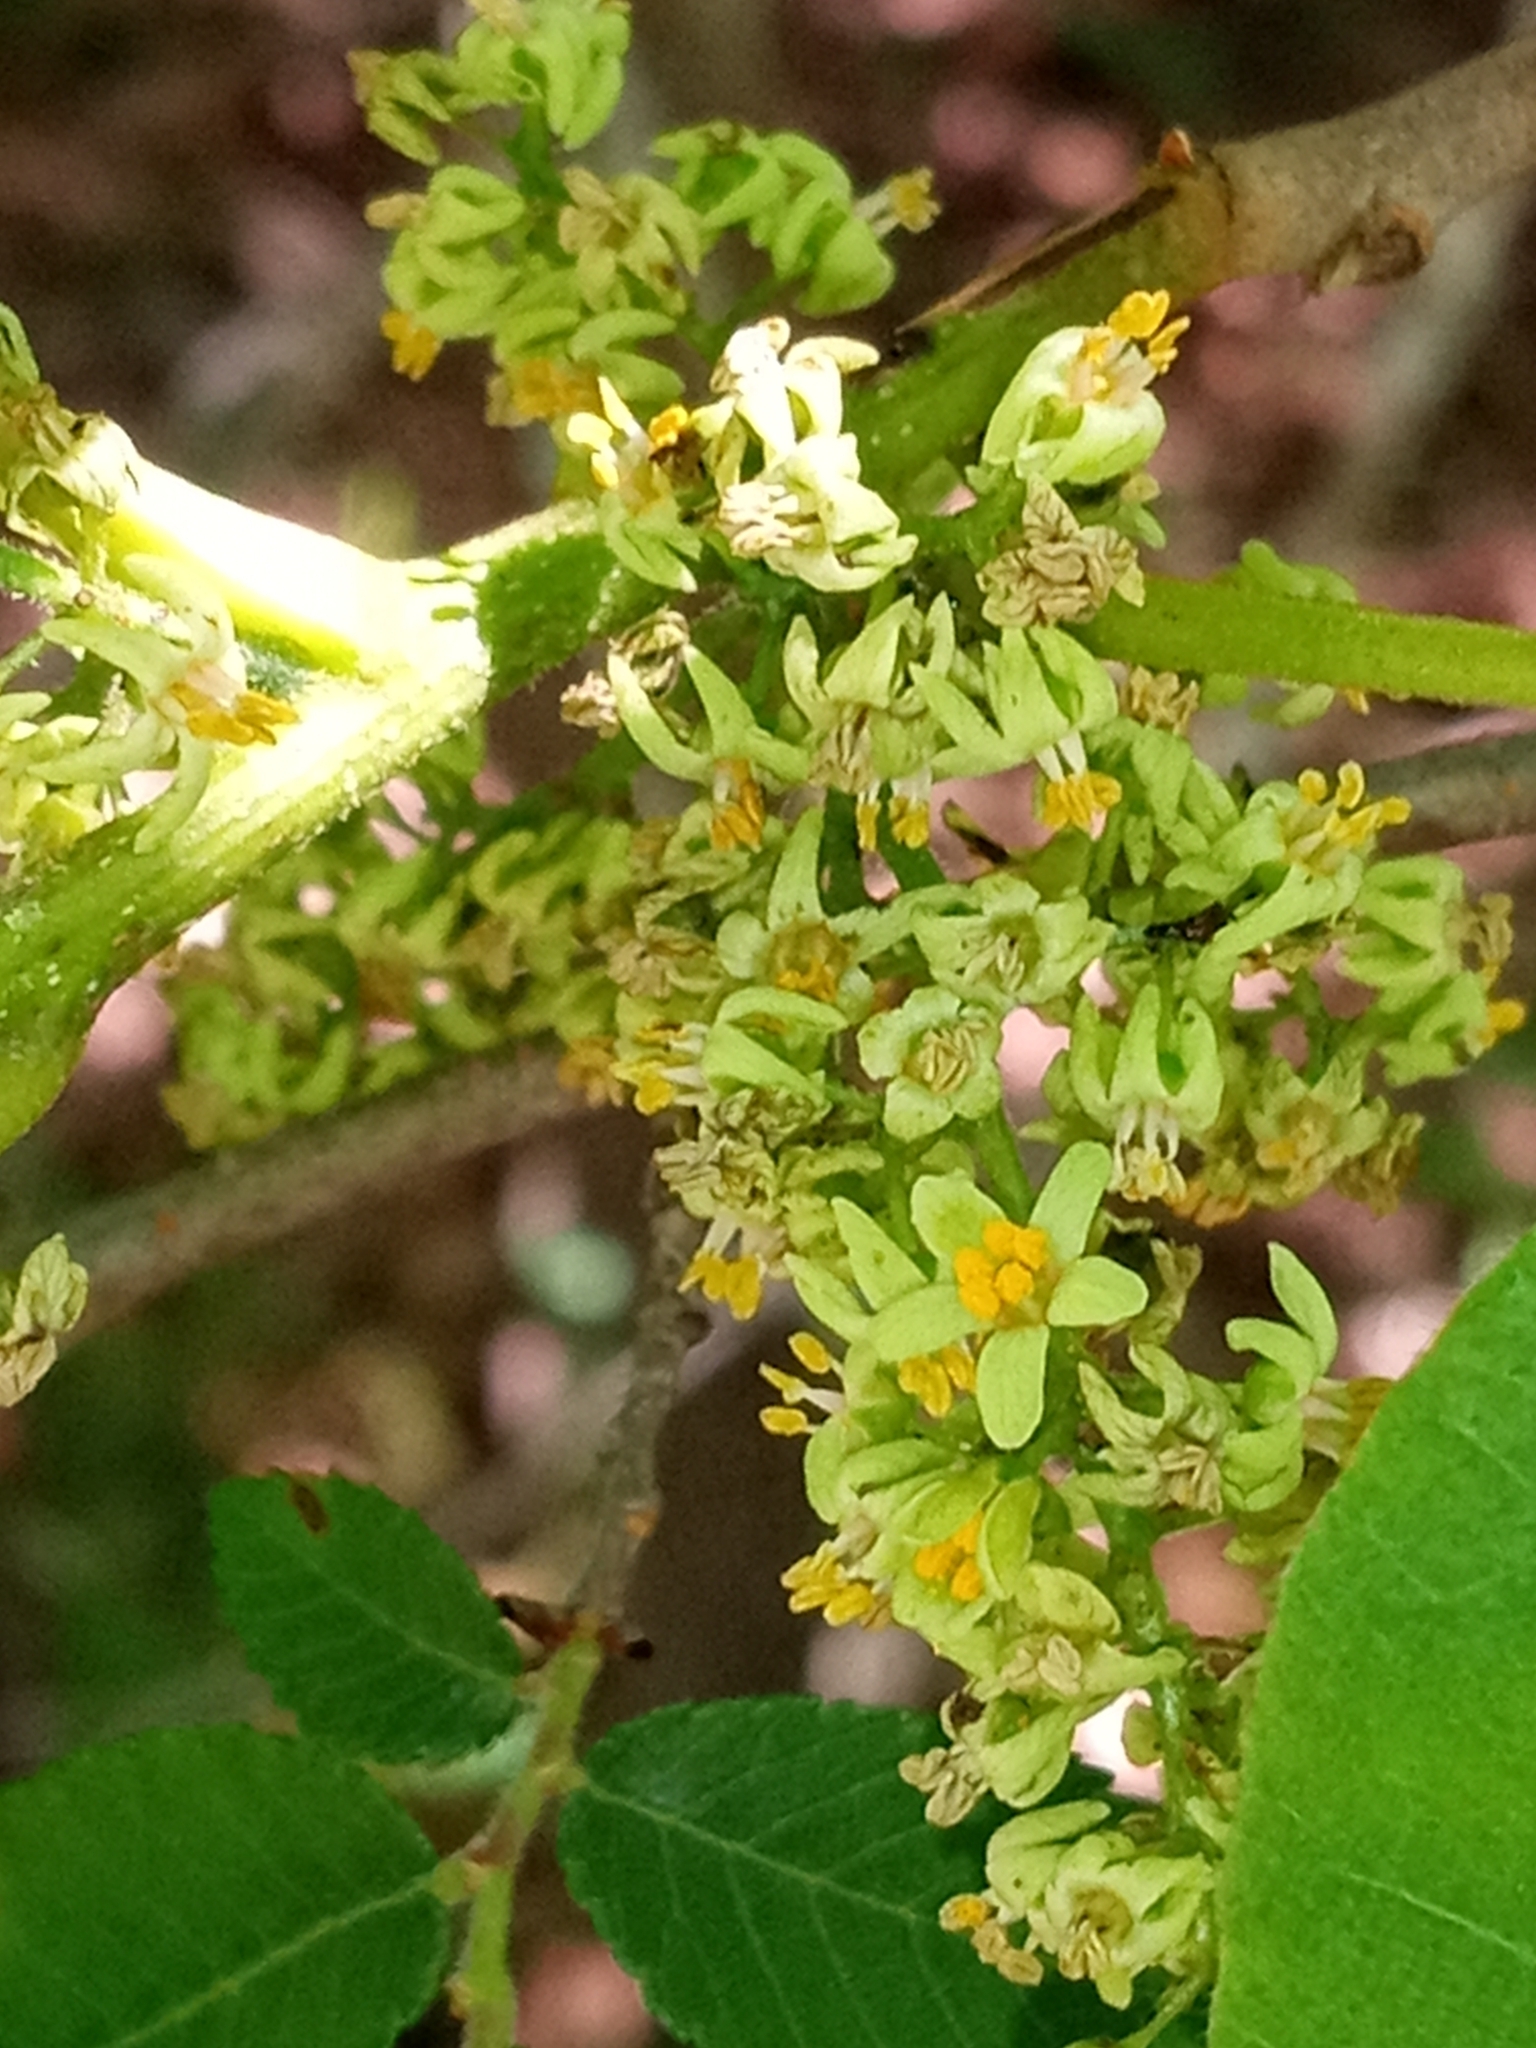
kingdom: Plantae
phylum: Tracheophyta
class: Magnoliopsida
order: Sapindales
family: Anacardiaceae
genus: Toxicodendron
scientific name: Toxicodendron radicans
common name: Poison ivy
